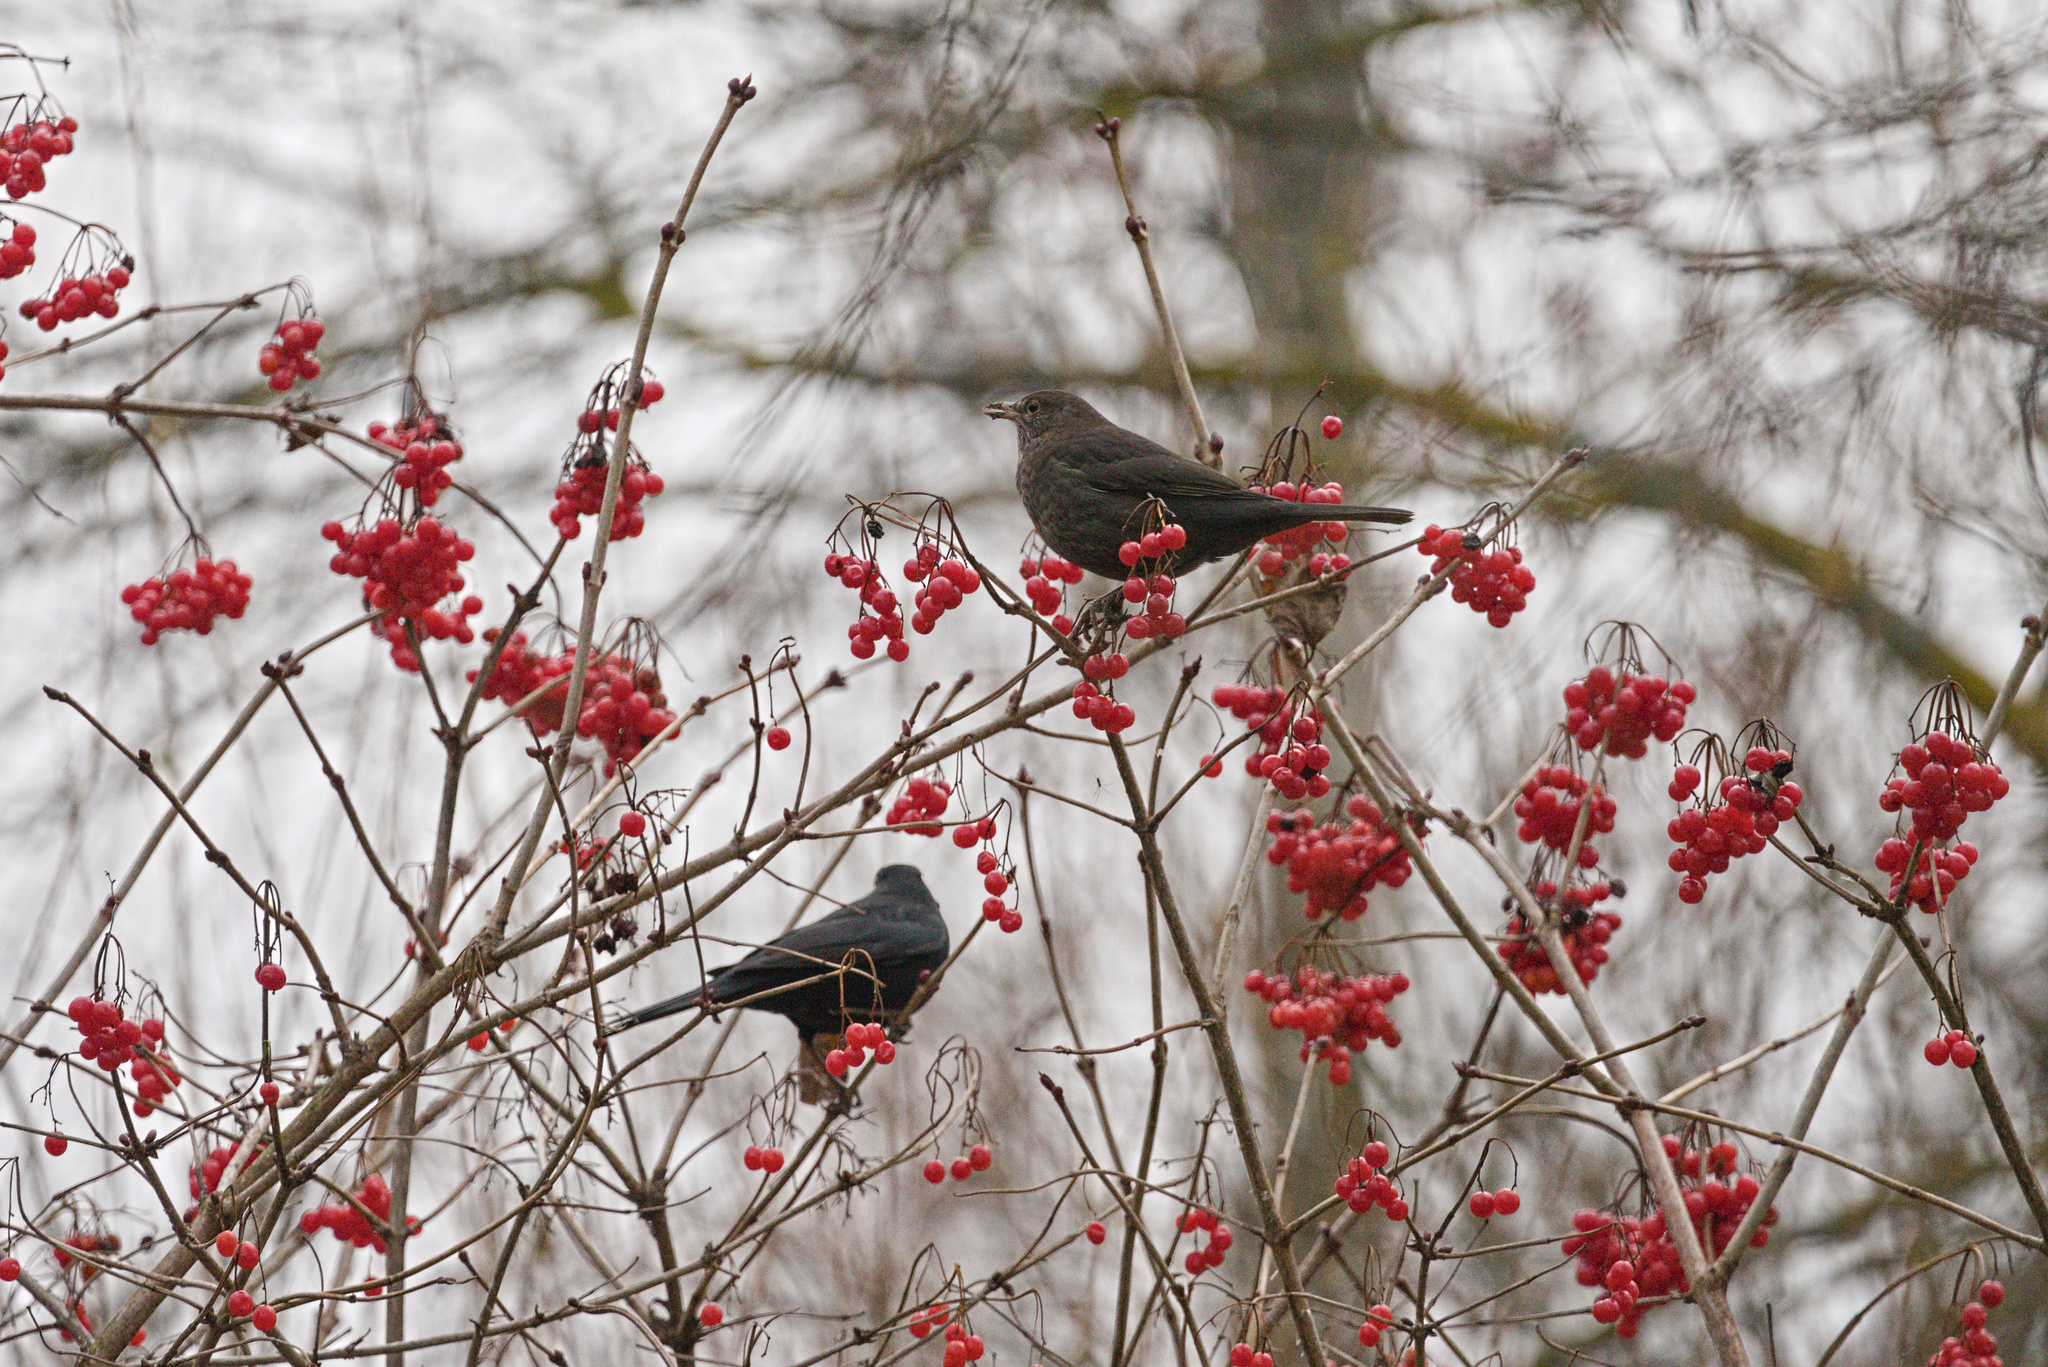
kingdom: Animalia
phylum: Chordata
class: Aves
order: Passeriformes
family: Turdidae
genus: Turdus
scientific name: Turdus merula
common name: Common blackbird
